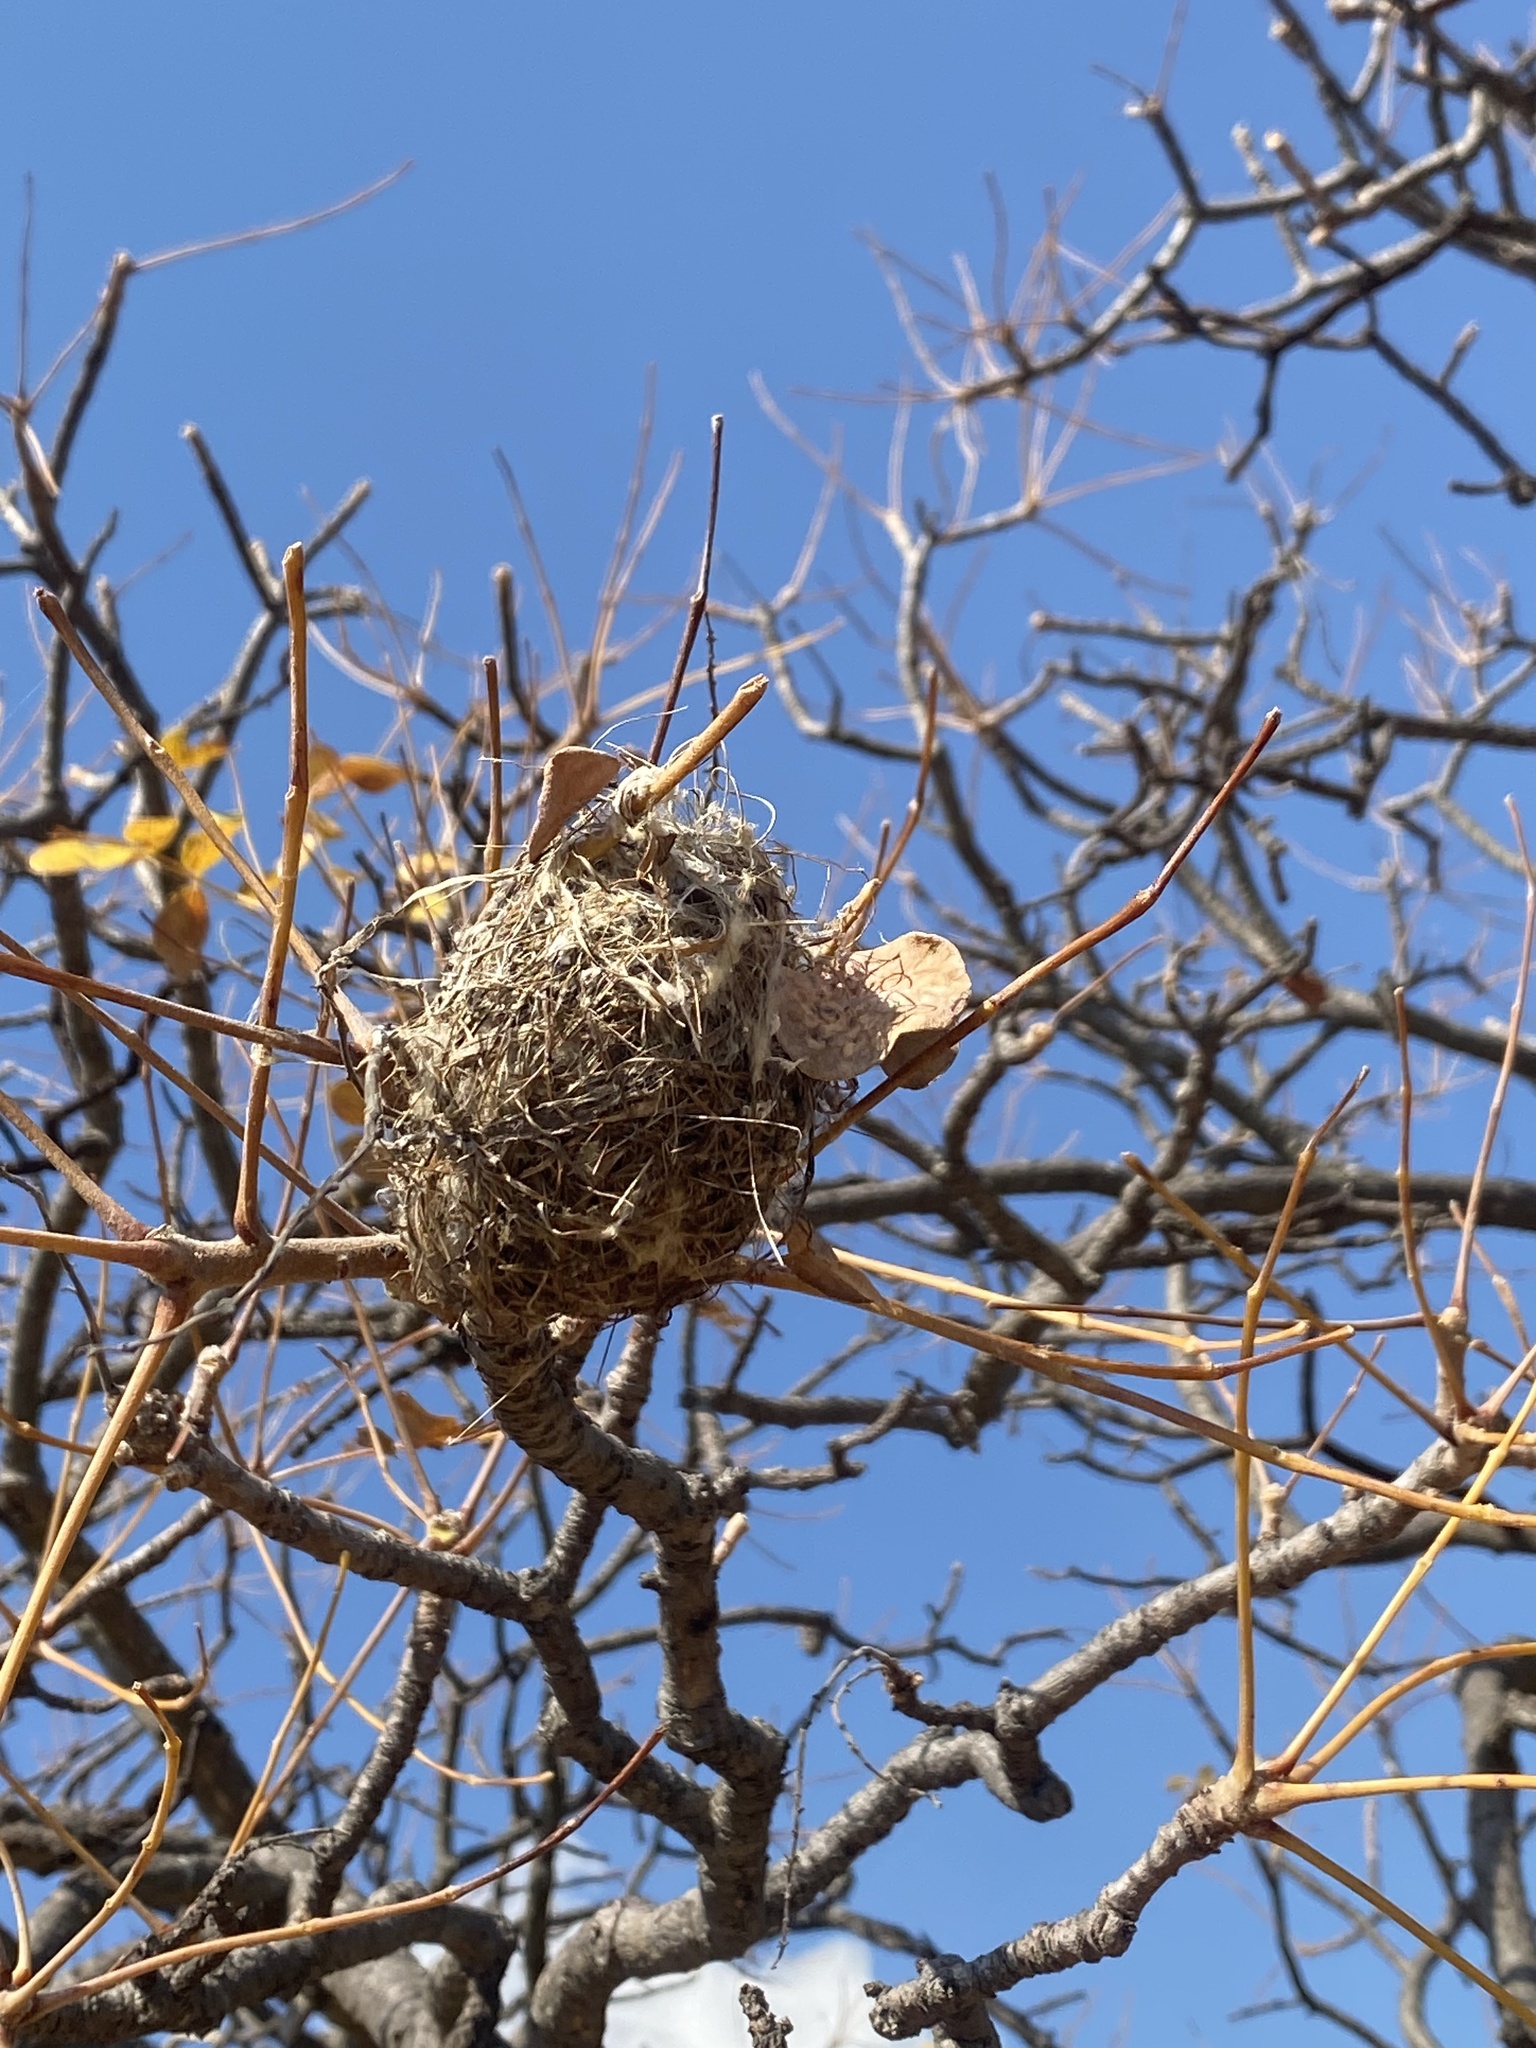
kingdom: Animalia
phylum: Chordata
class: Aves
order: Passeriformes
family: Fringillidae
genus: Crithagra
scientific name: Crithagra mozambica
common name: Yellow-fronted canary
